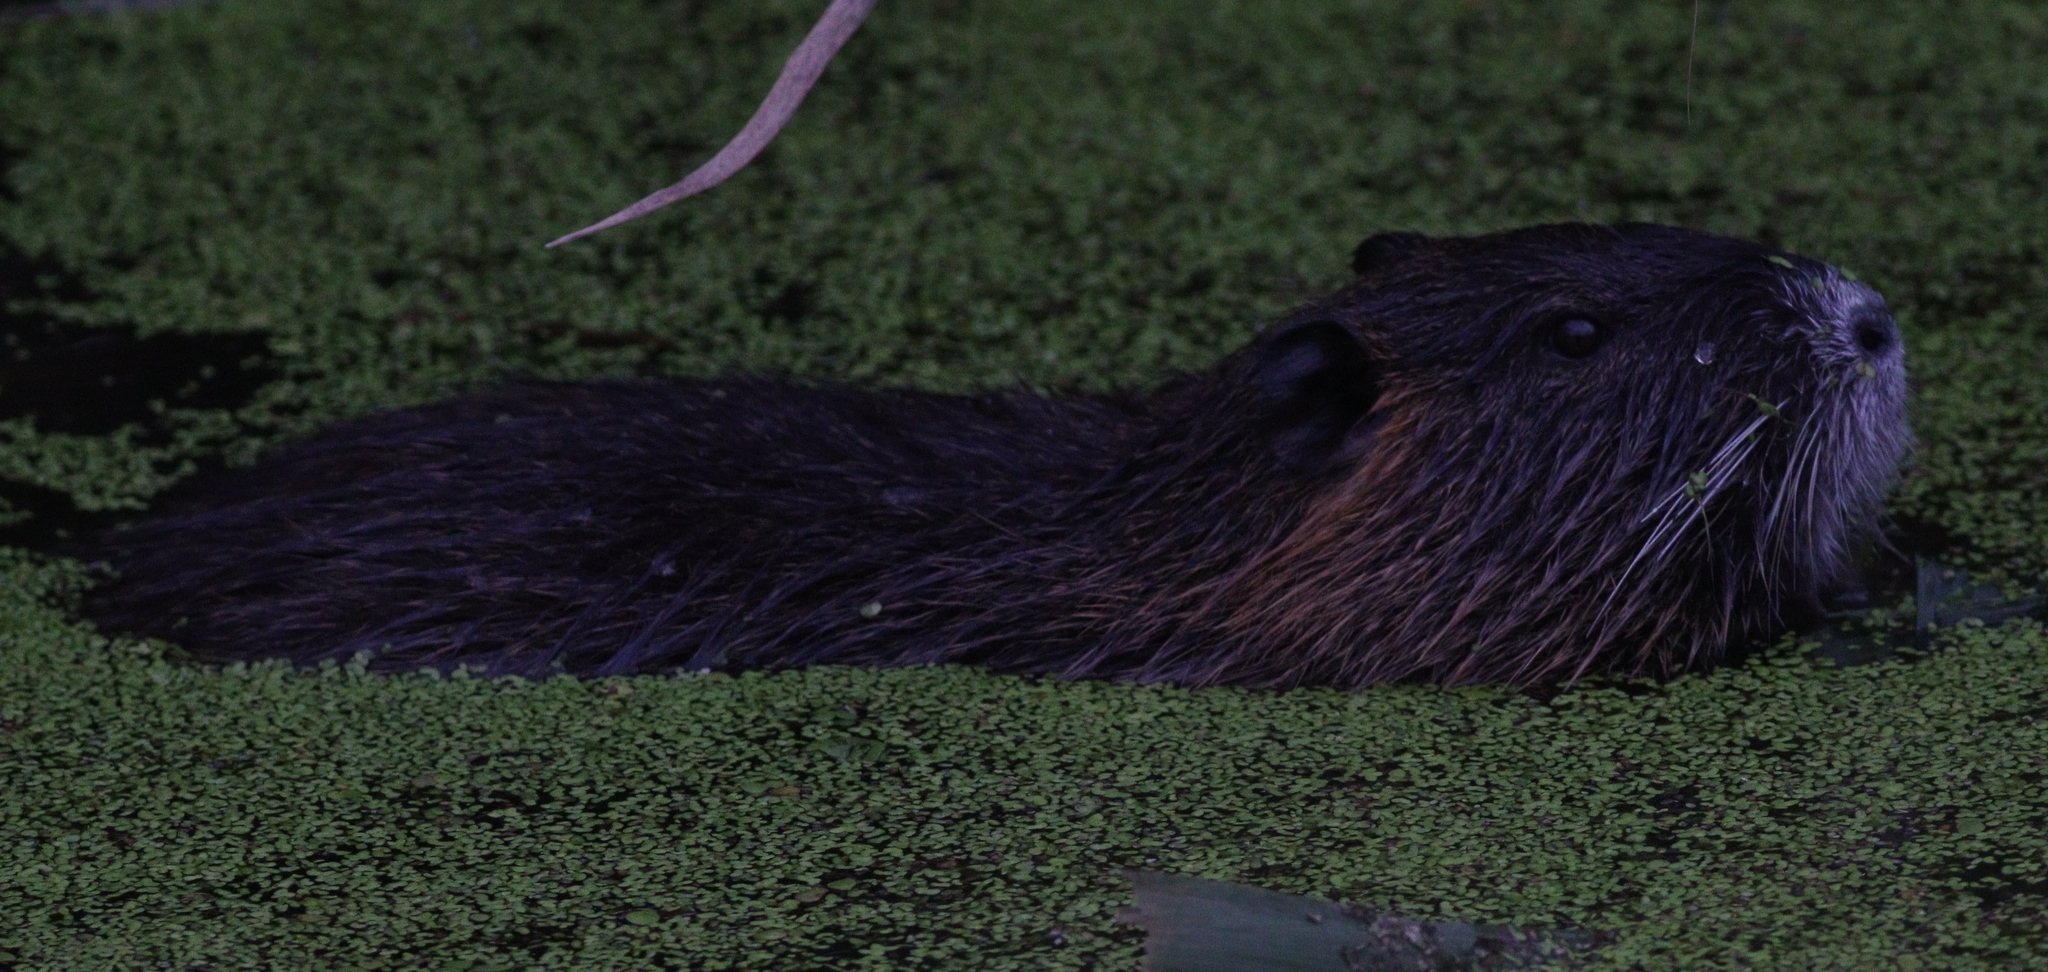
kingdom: Animalia
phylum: Chordata
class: Mammalia
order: Rodentia
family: Myocastoridae
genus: Myocastor
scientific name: Myocastor coypus
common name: Coypu
